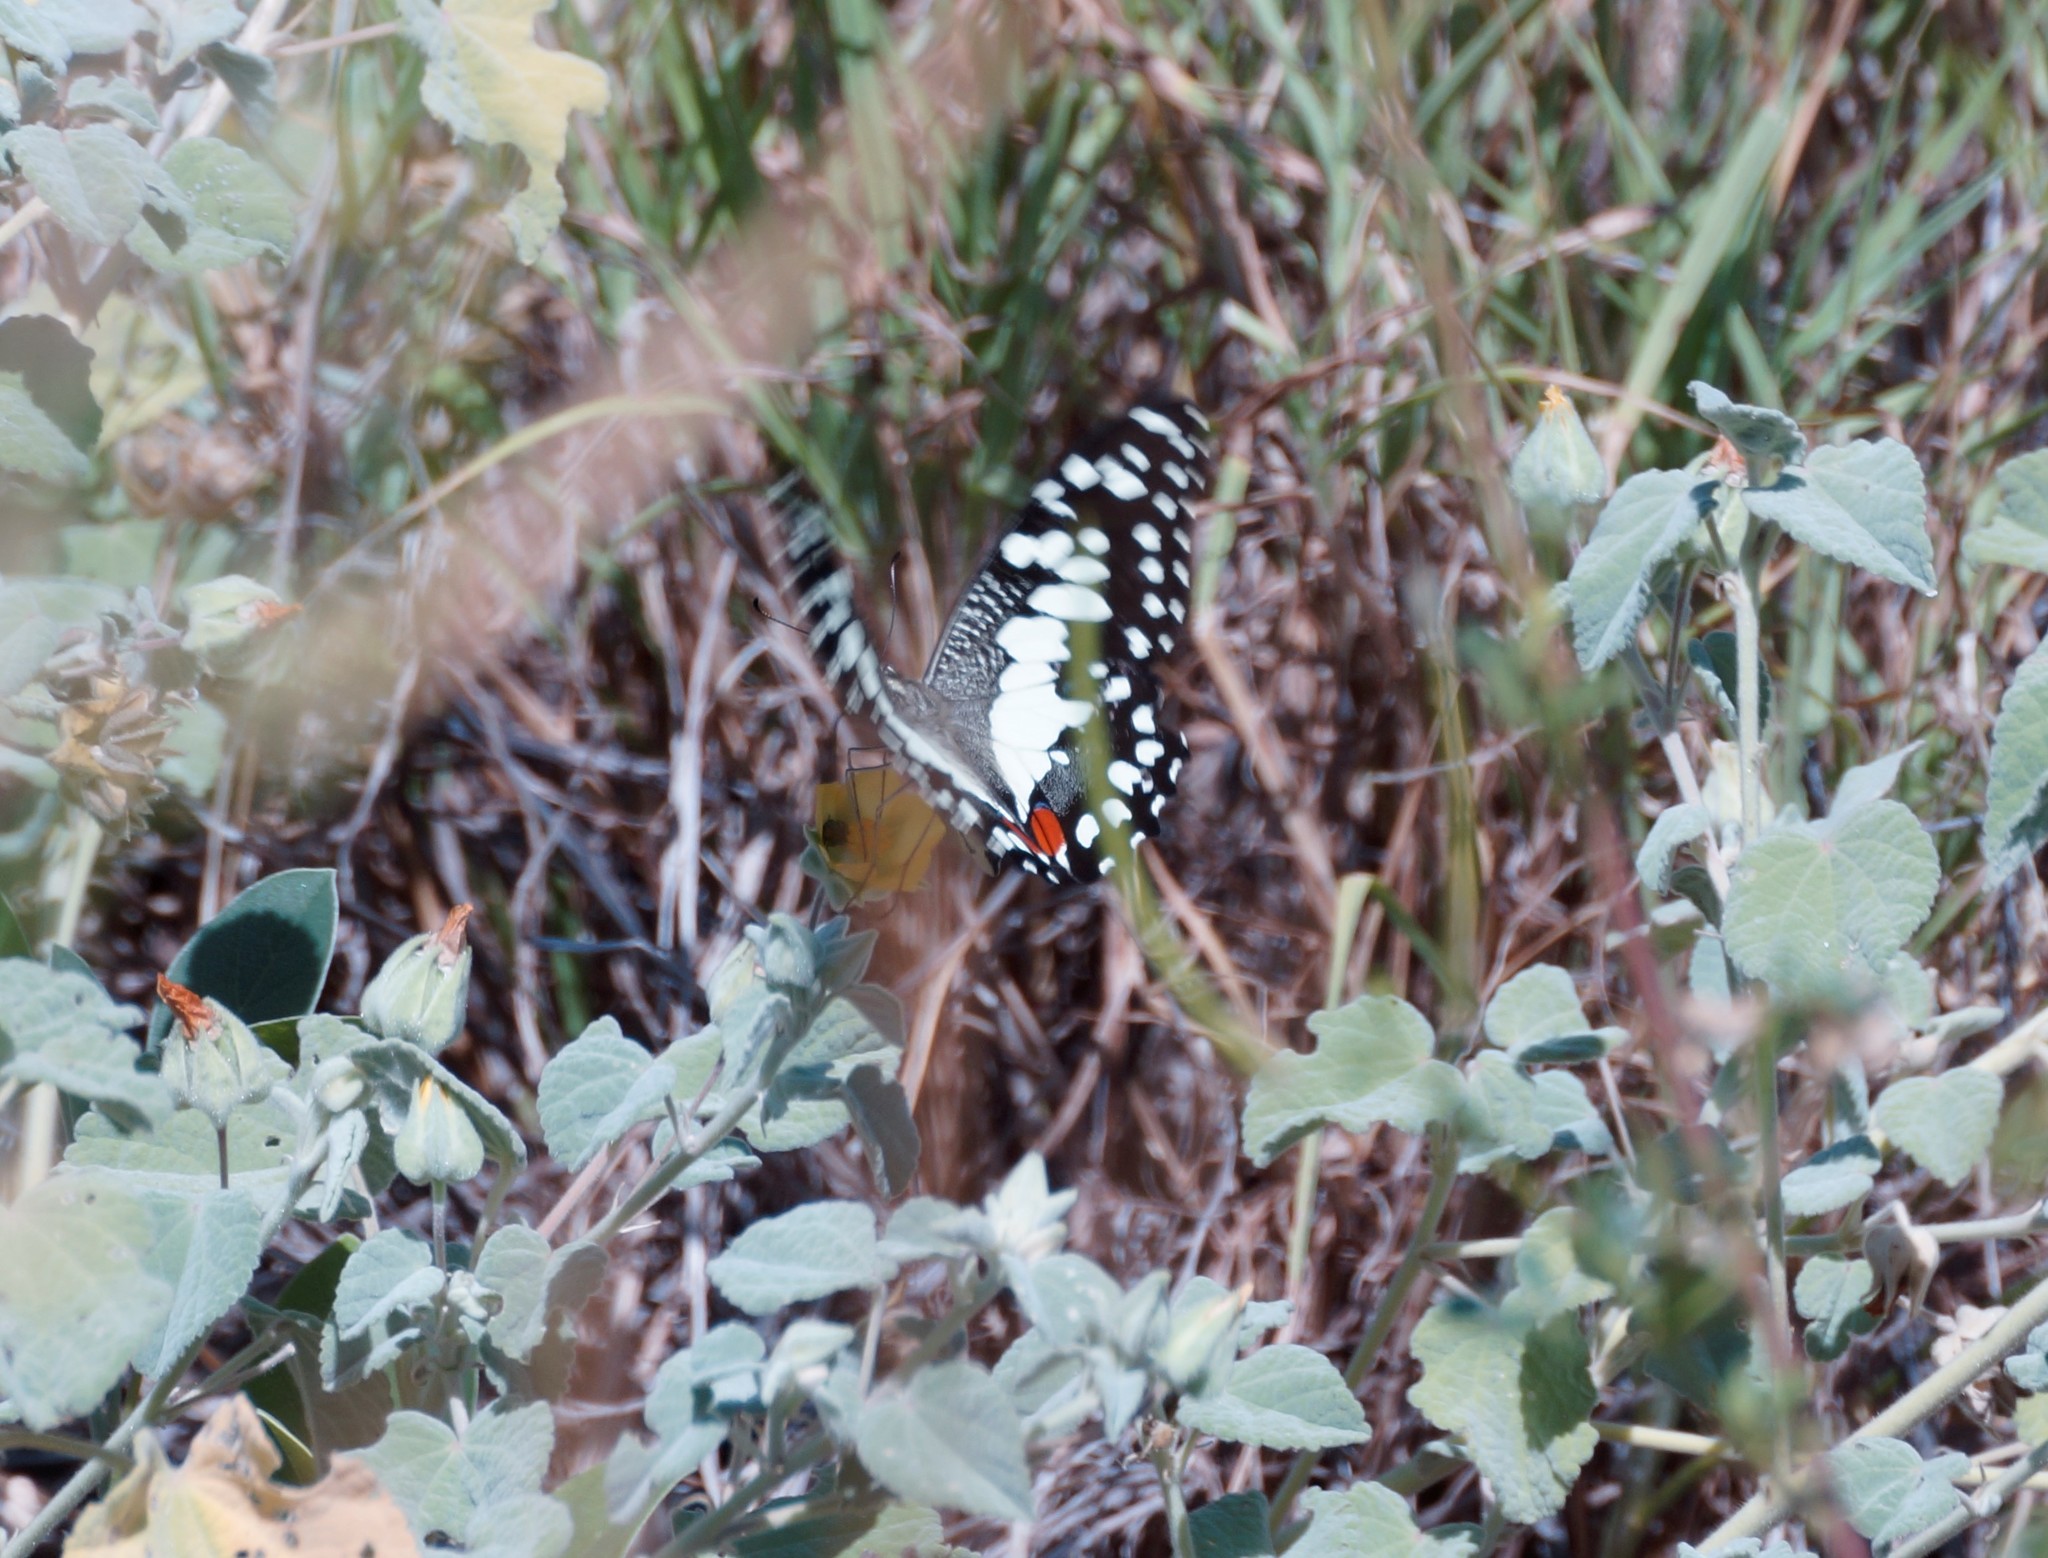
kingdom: Animalia
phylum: Arthropoda
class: Insecta
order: Lepidoptera
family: Papilionidae
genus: Papilio
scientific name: Papilio demoleus
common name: Lime butterfly
